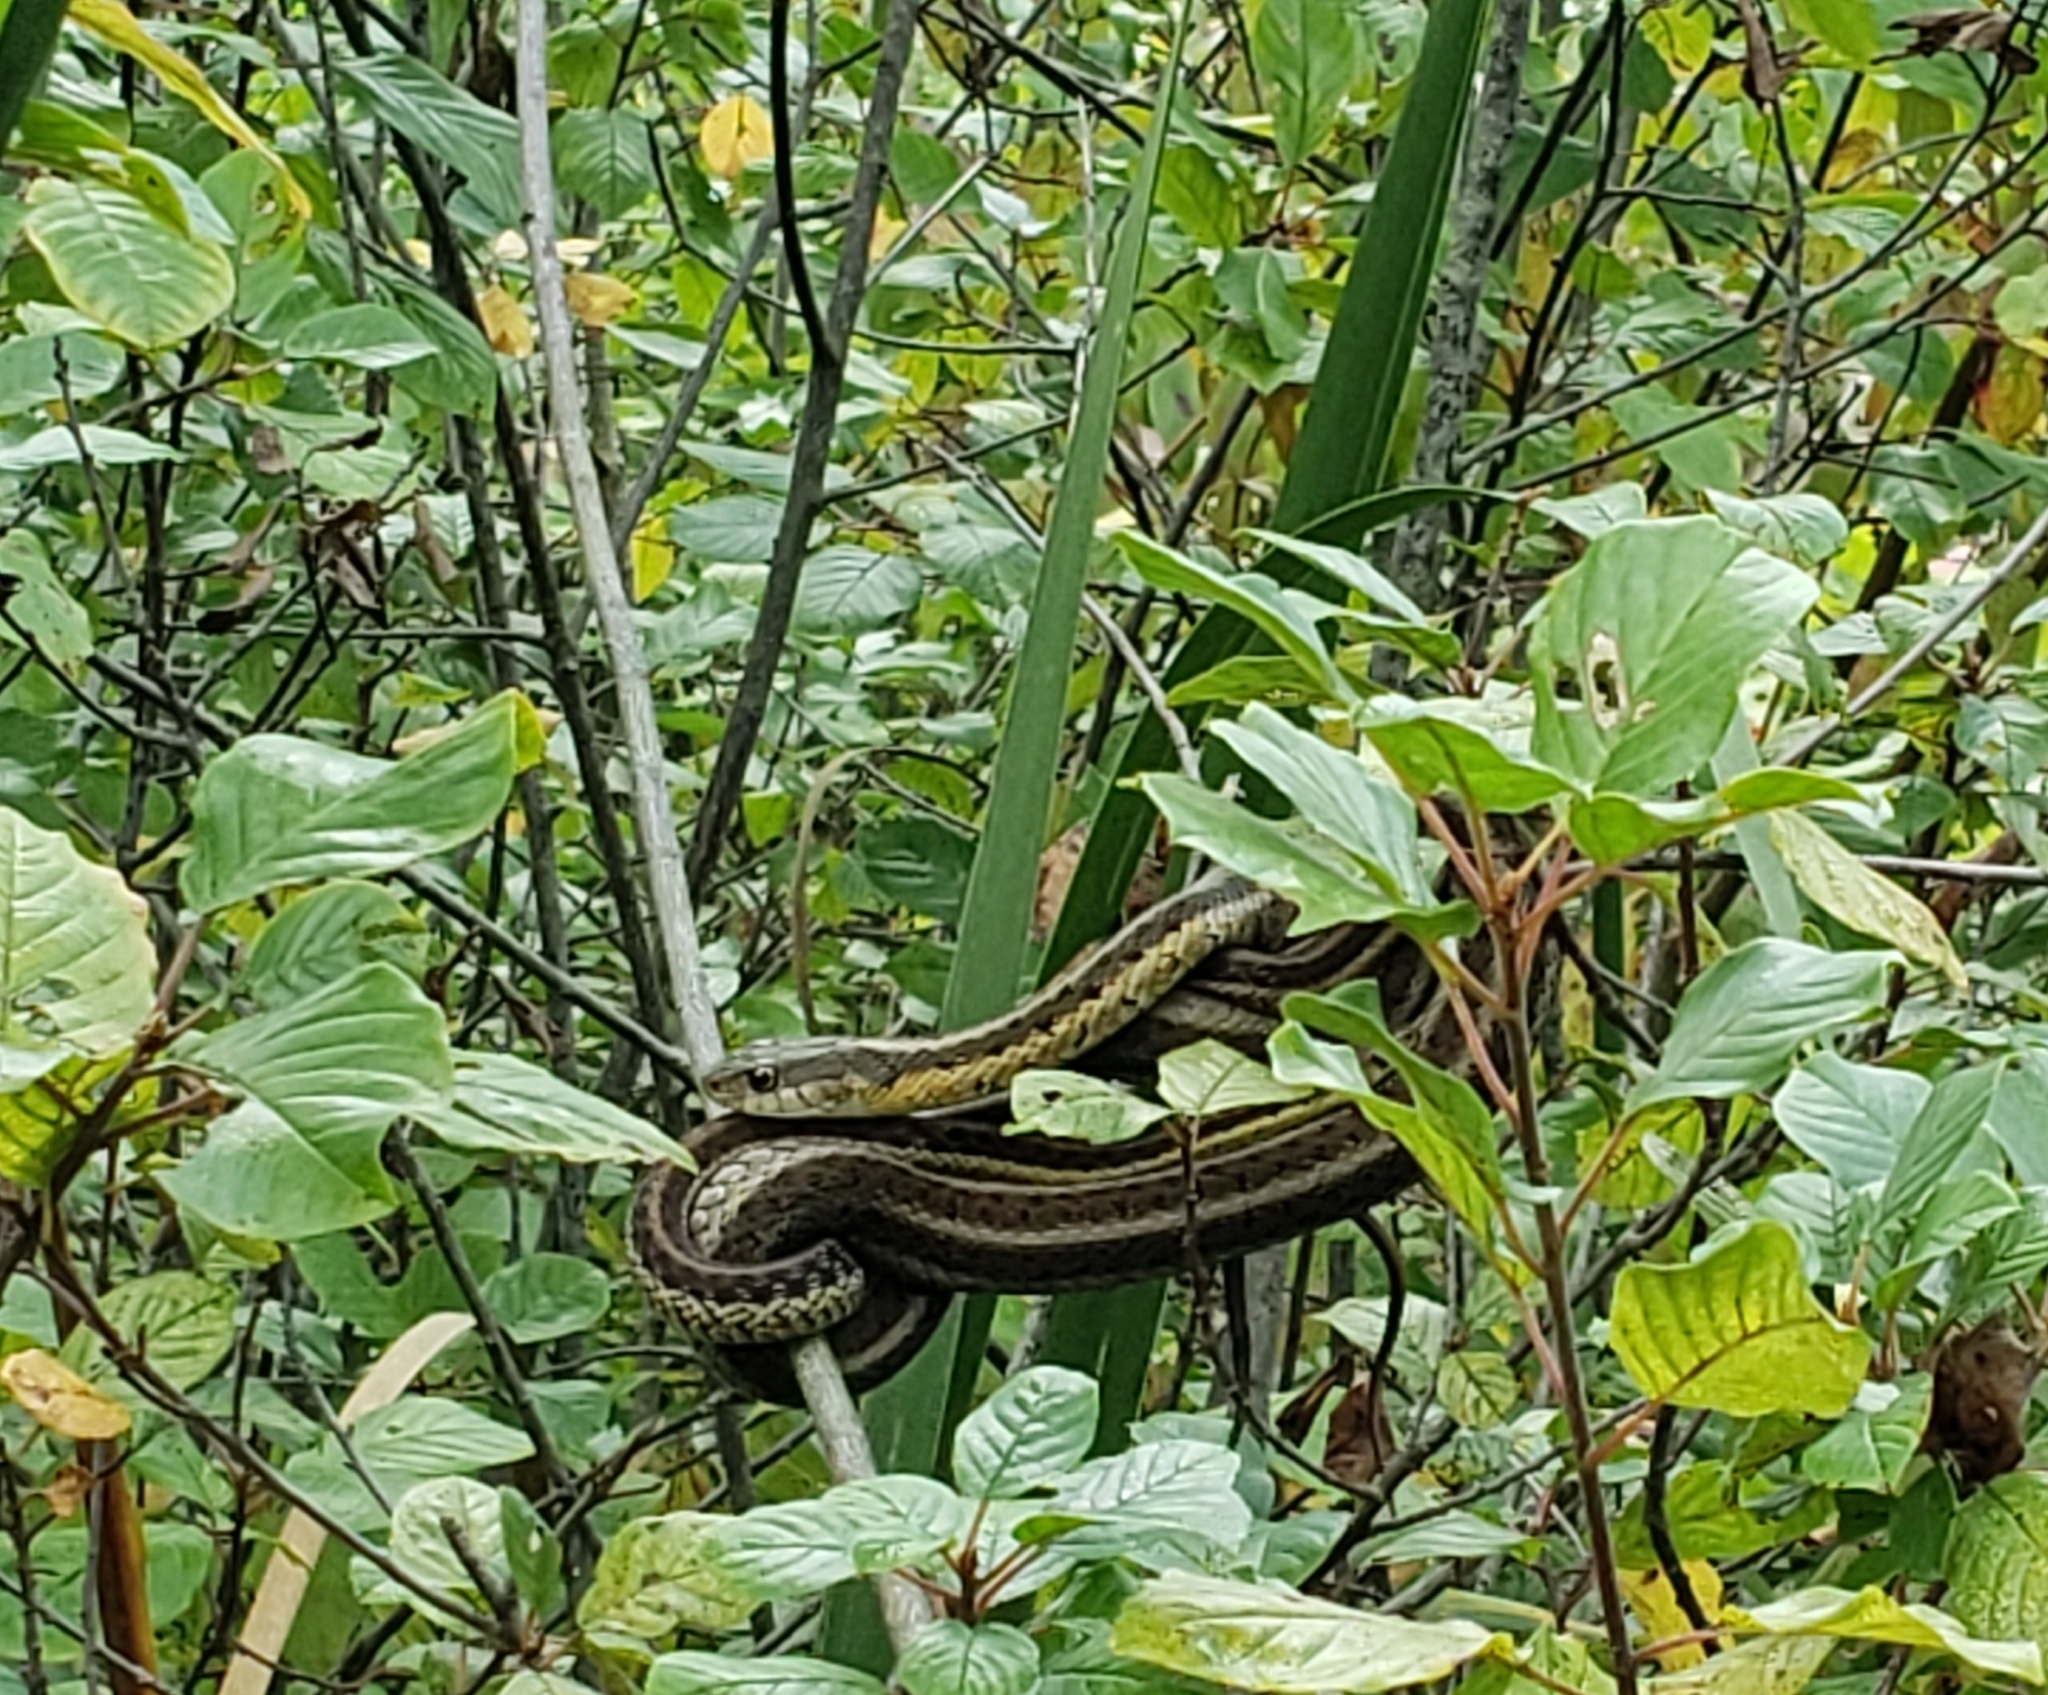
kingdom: Animalia
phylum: Chordata
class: Squamata
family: Colubridae
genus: Thamnophis
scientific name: Thamnophis sirtalis
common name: Common garter snake
